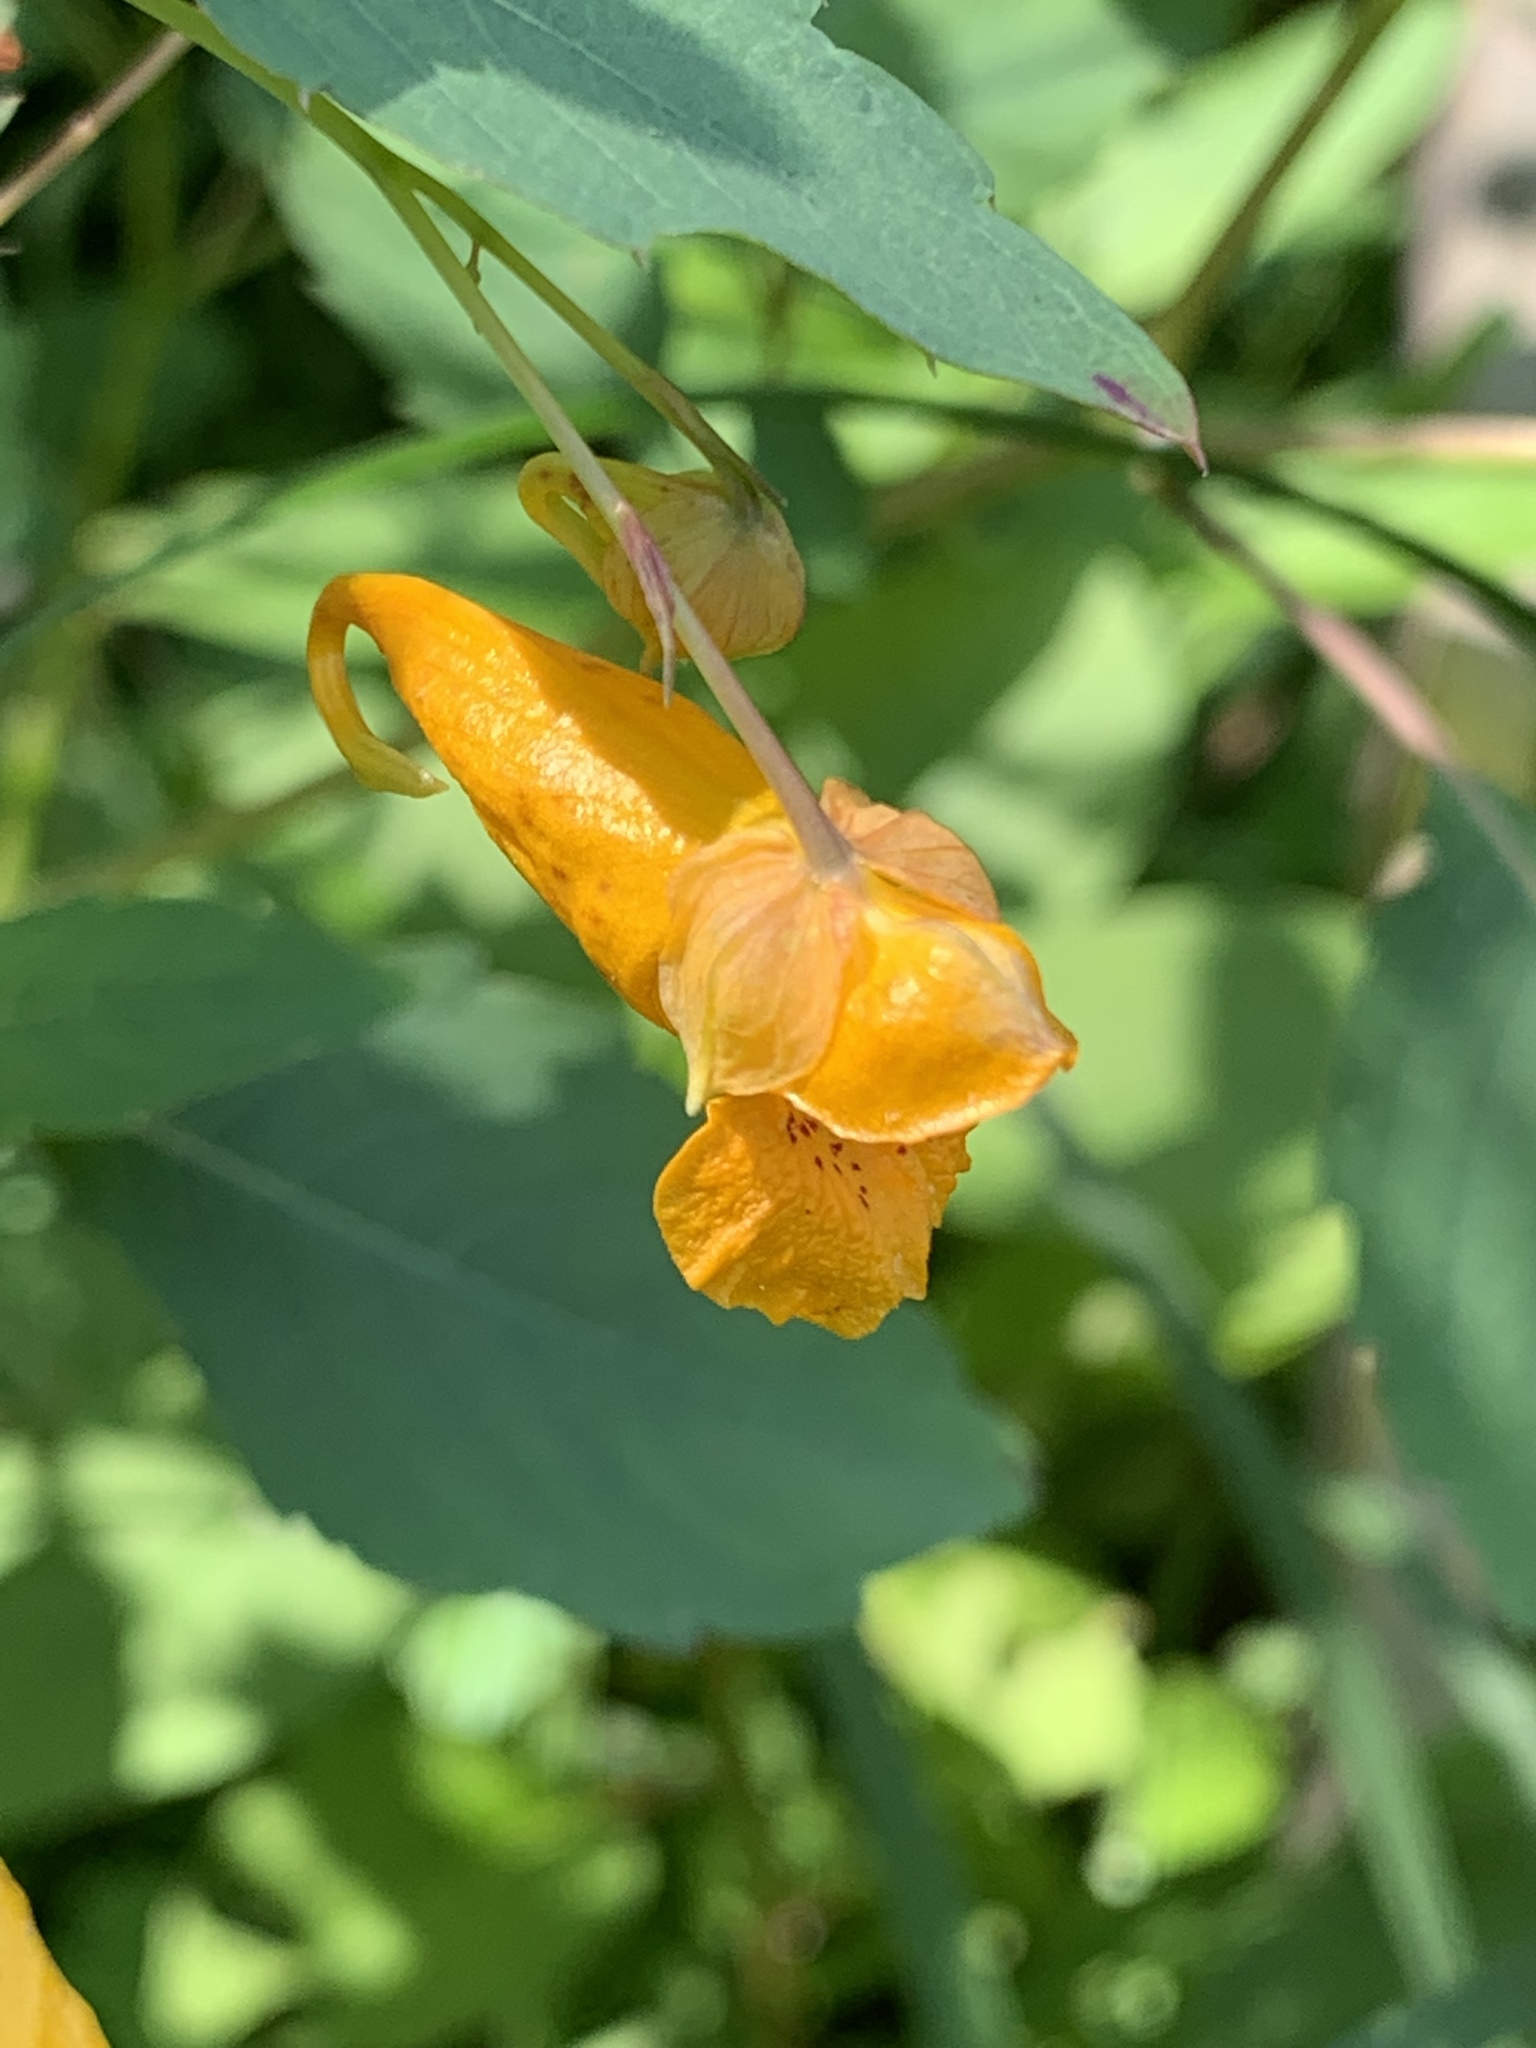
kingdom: Plantae
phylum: Tracheophyta
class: Magnoliopsida
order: Ericales
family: Balsaminaceae
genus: Impatiens
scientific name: Impatiens capensis
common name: Orange balsam
